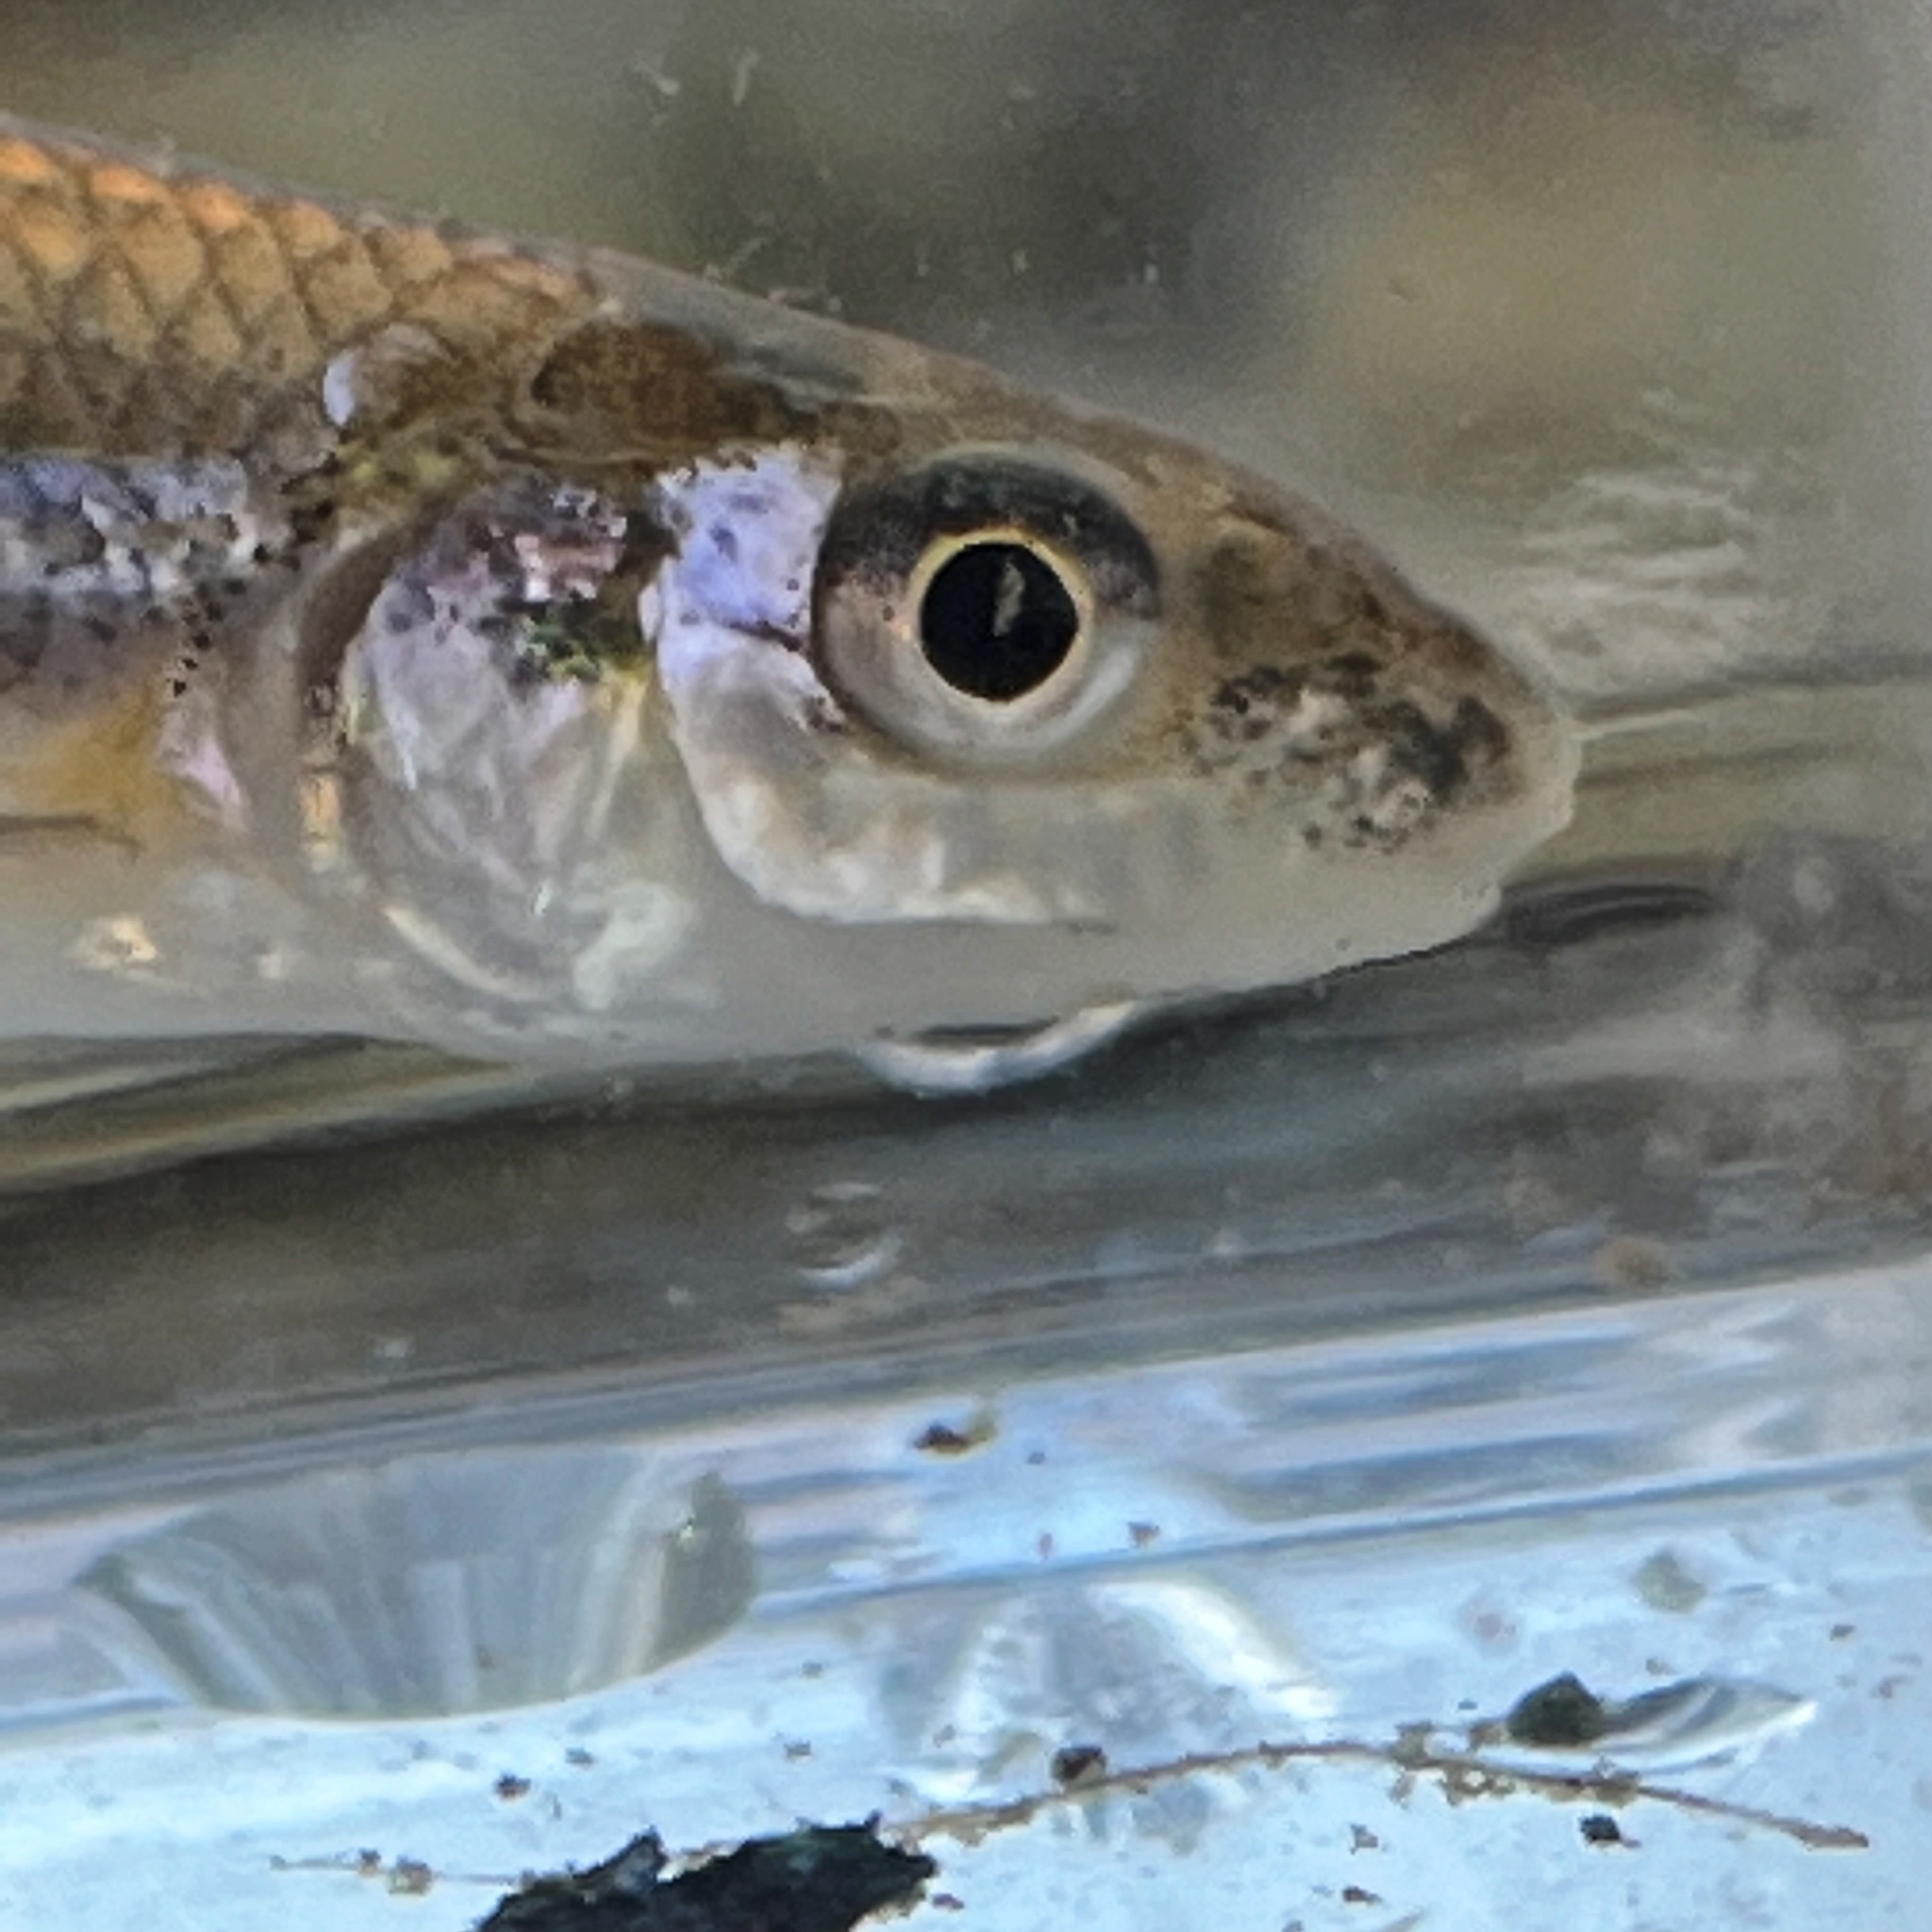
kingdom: Animalia
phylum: Chordata
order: Cypriniformes
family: Cyprinidae
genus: Notropis
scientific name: Notropis buccatus
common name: Silverjaw minnow
